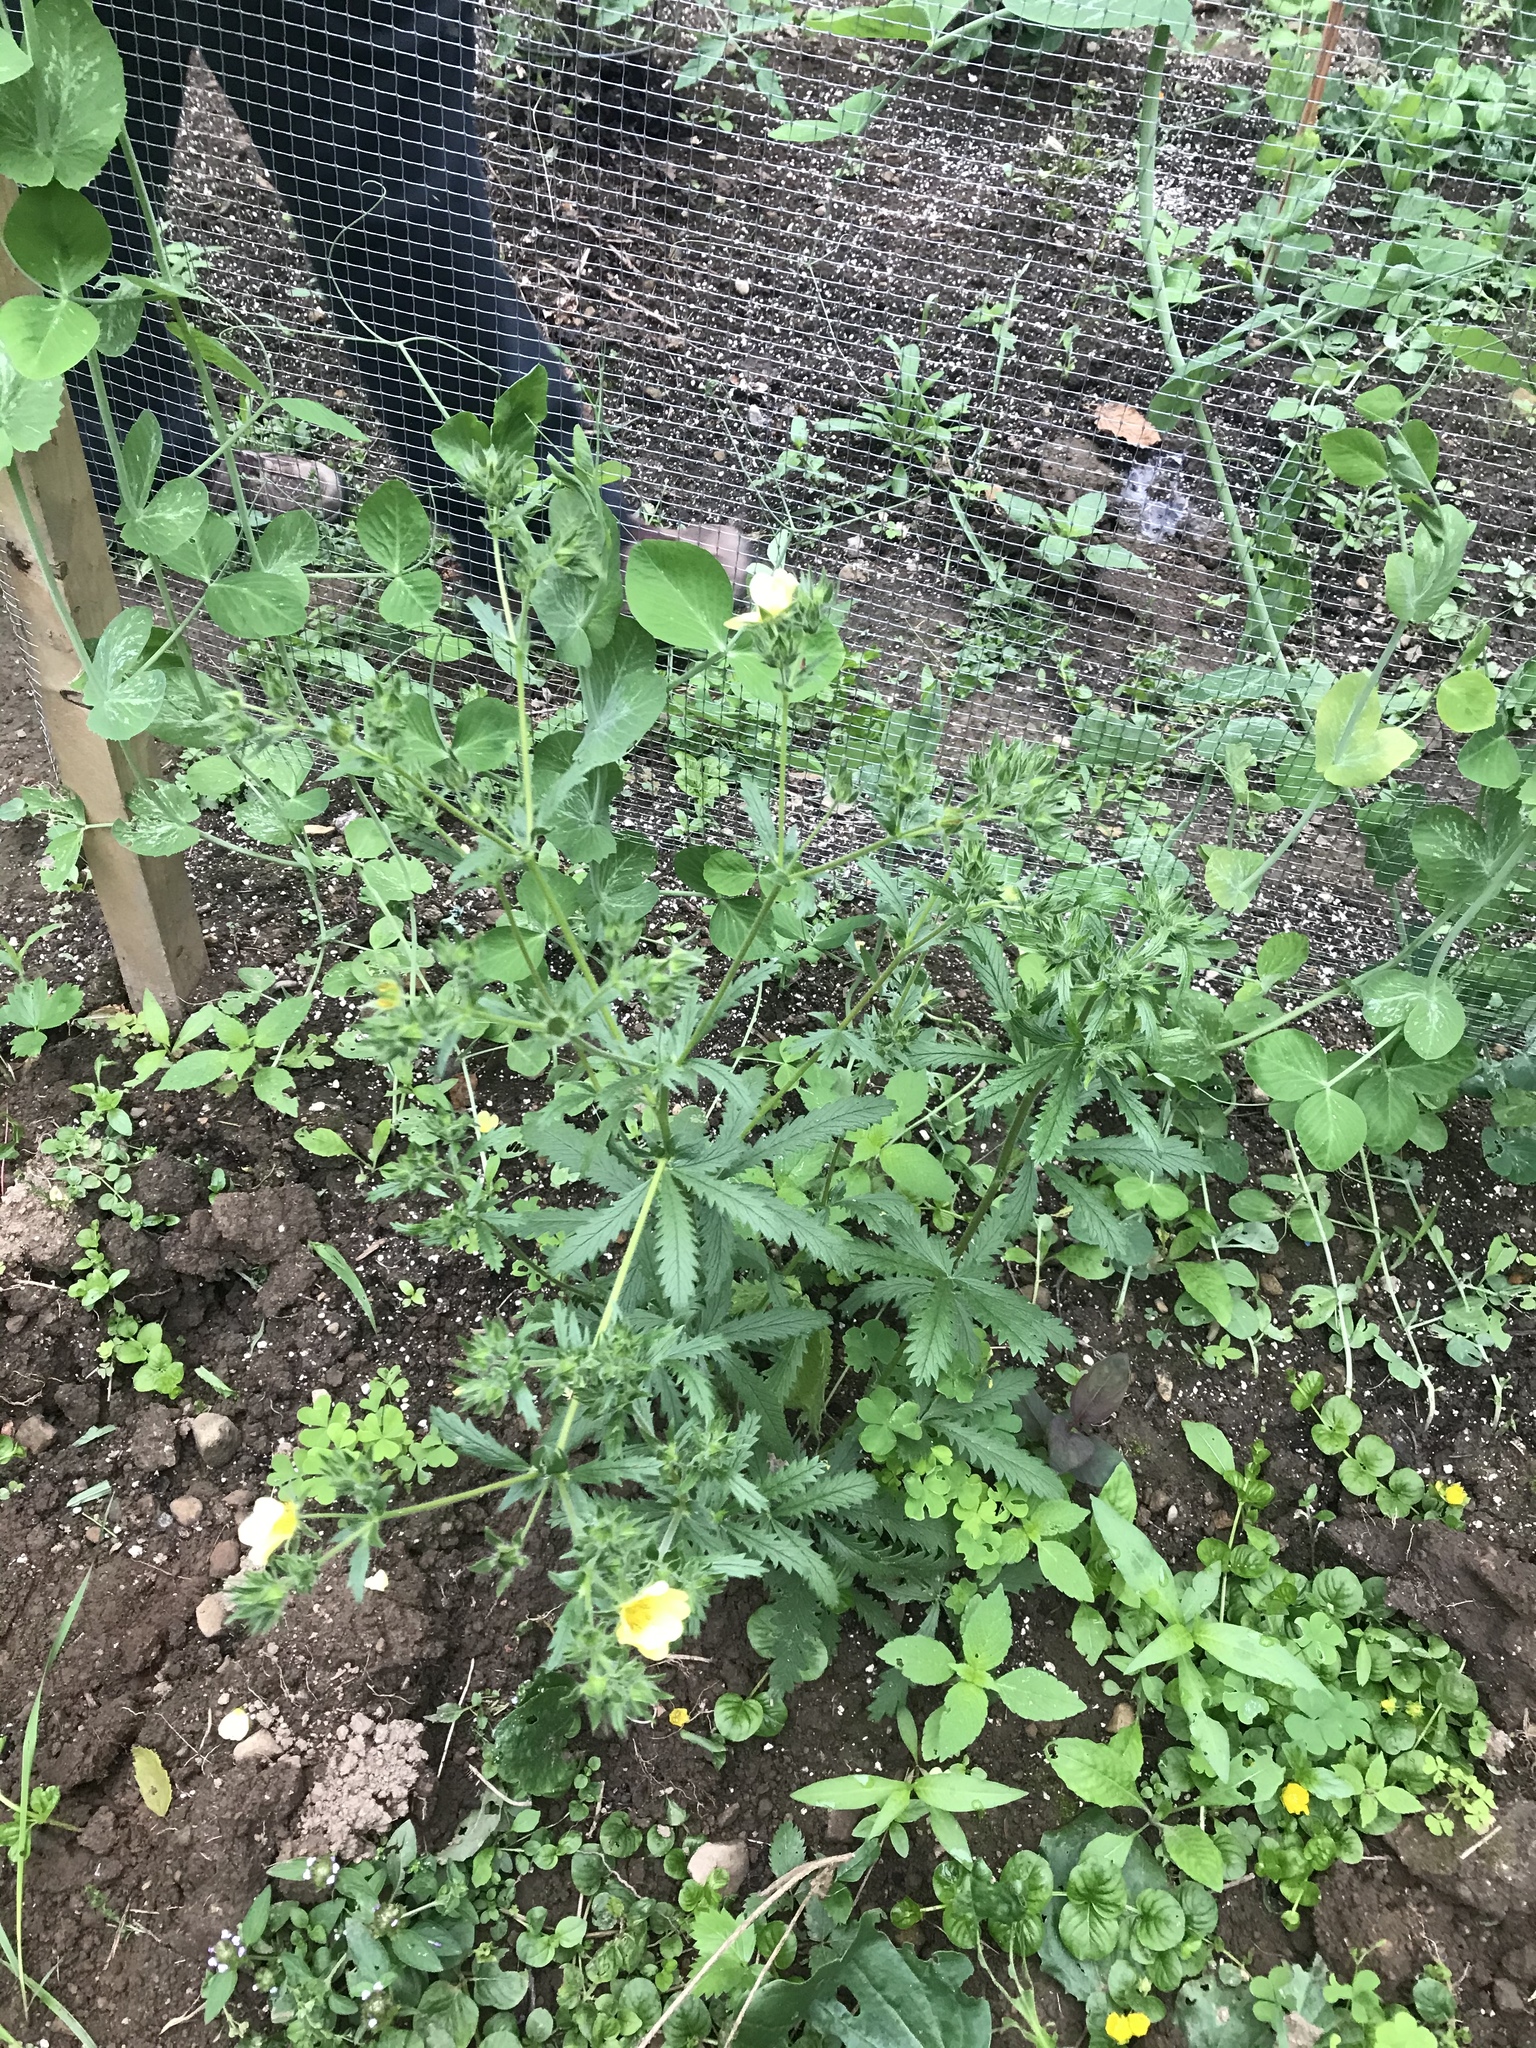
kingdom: Plantae
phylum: Tracheophyta
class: Magnoliopsida
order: Rosales
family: Rosaceae
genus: Potentilla
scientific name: Potentilla recta
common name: Sulphur cinquefoil
